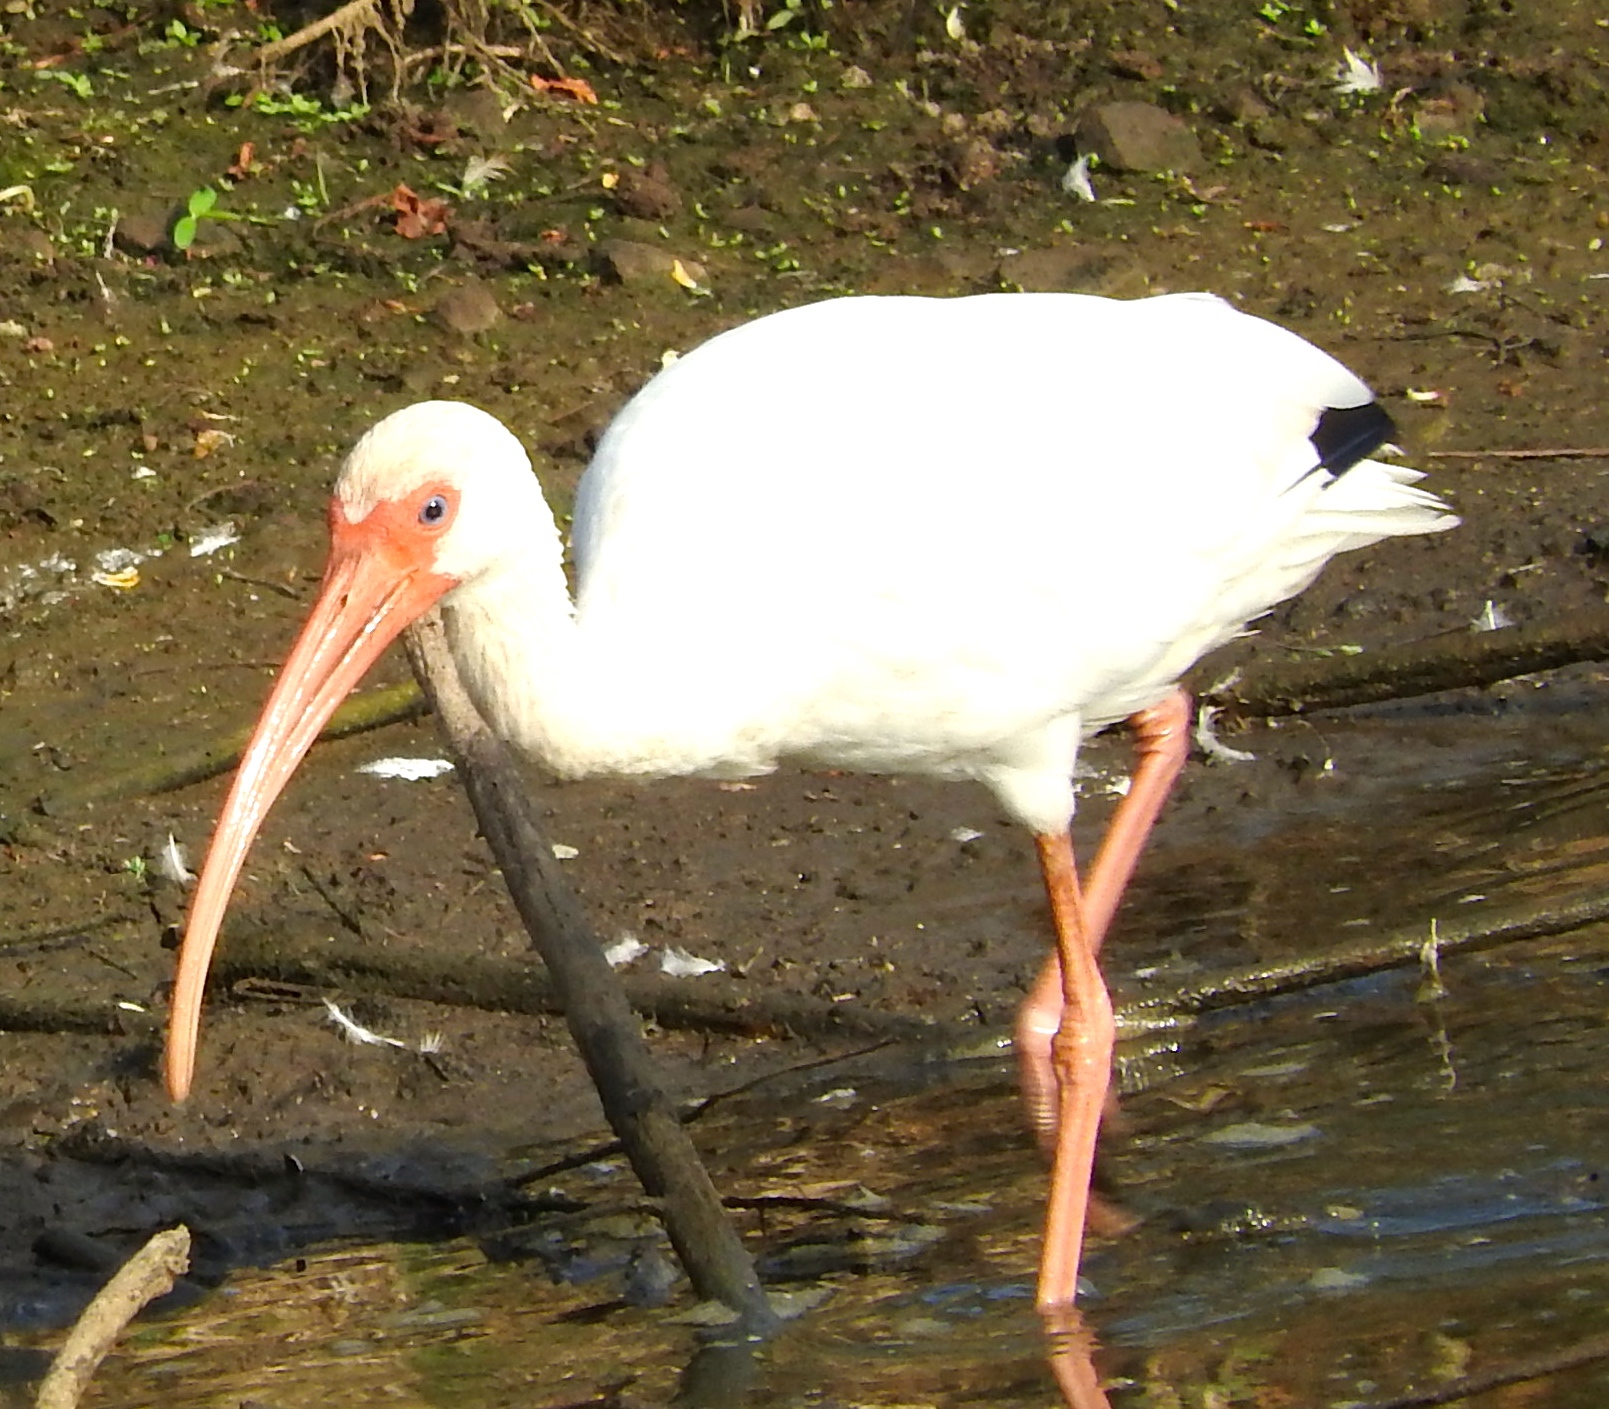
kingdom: Animalia
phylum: Chordata
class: Aves
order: Pelecaniformes
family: Threskiornithidae
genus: Eudocimus
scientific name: Eudocimus albus
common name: White ibis
